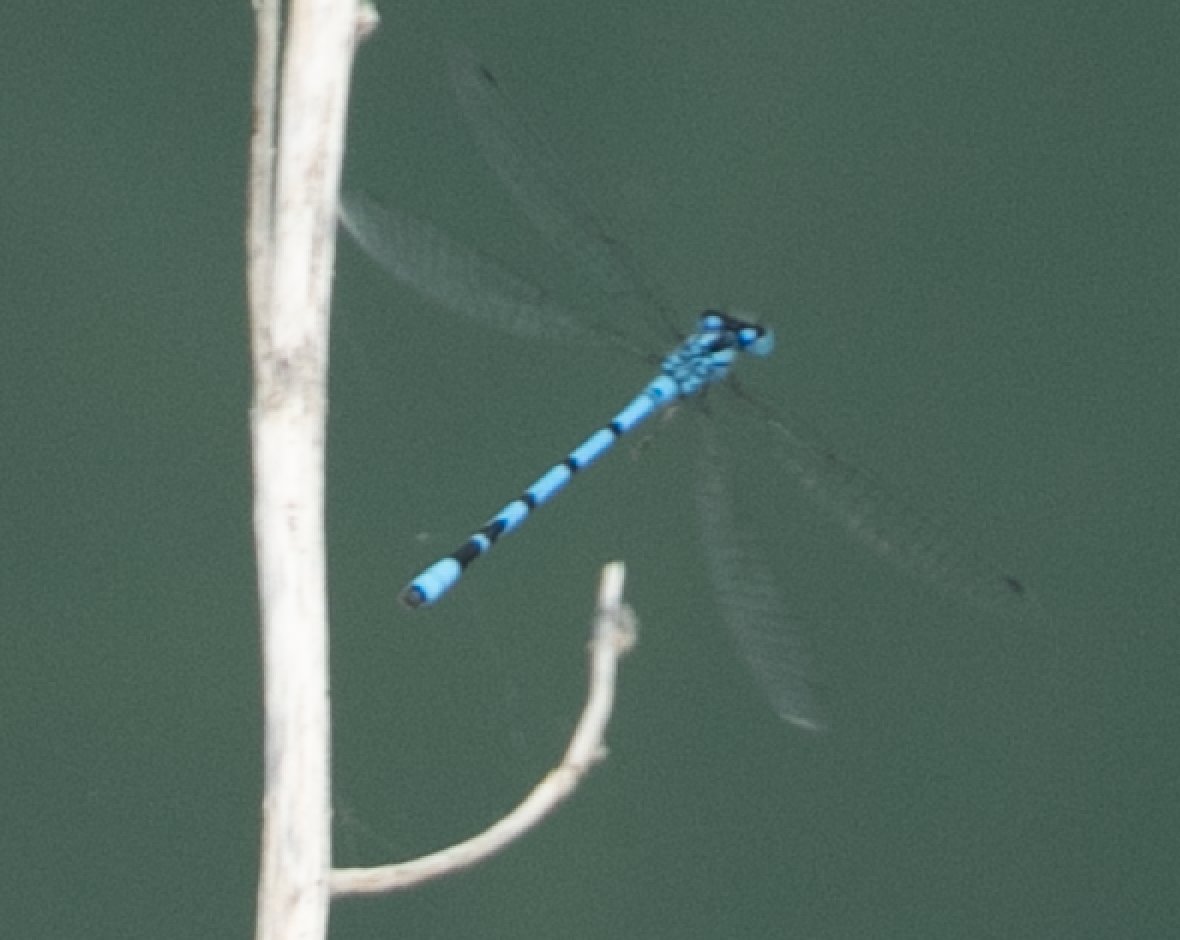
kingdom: Animalia
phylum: Arthropoda
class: Insecta
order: Odonata
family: Coenagrionidae
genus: Enallagma
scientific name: Enallagma cyathigerum
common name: Common blue damselfly
